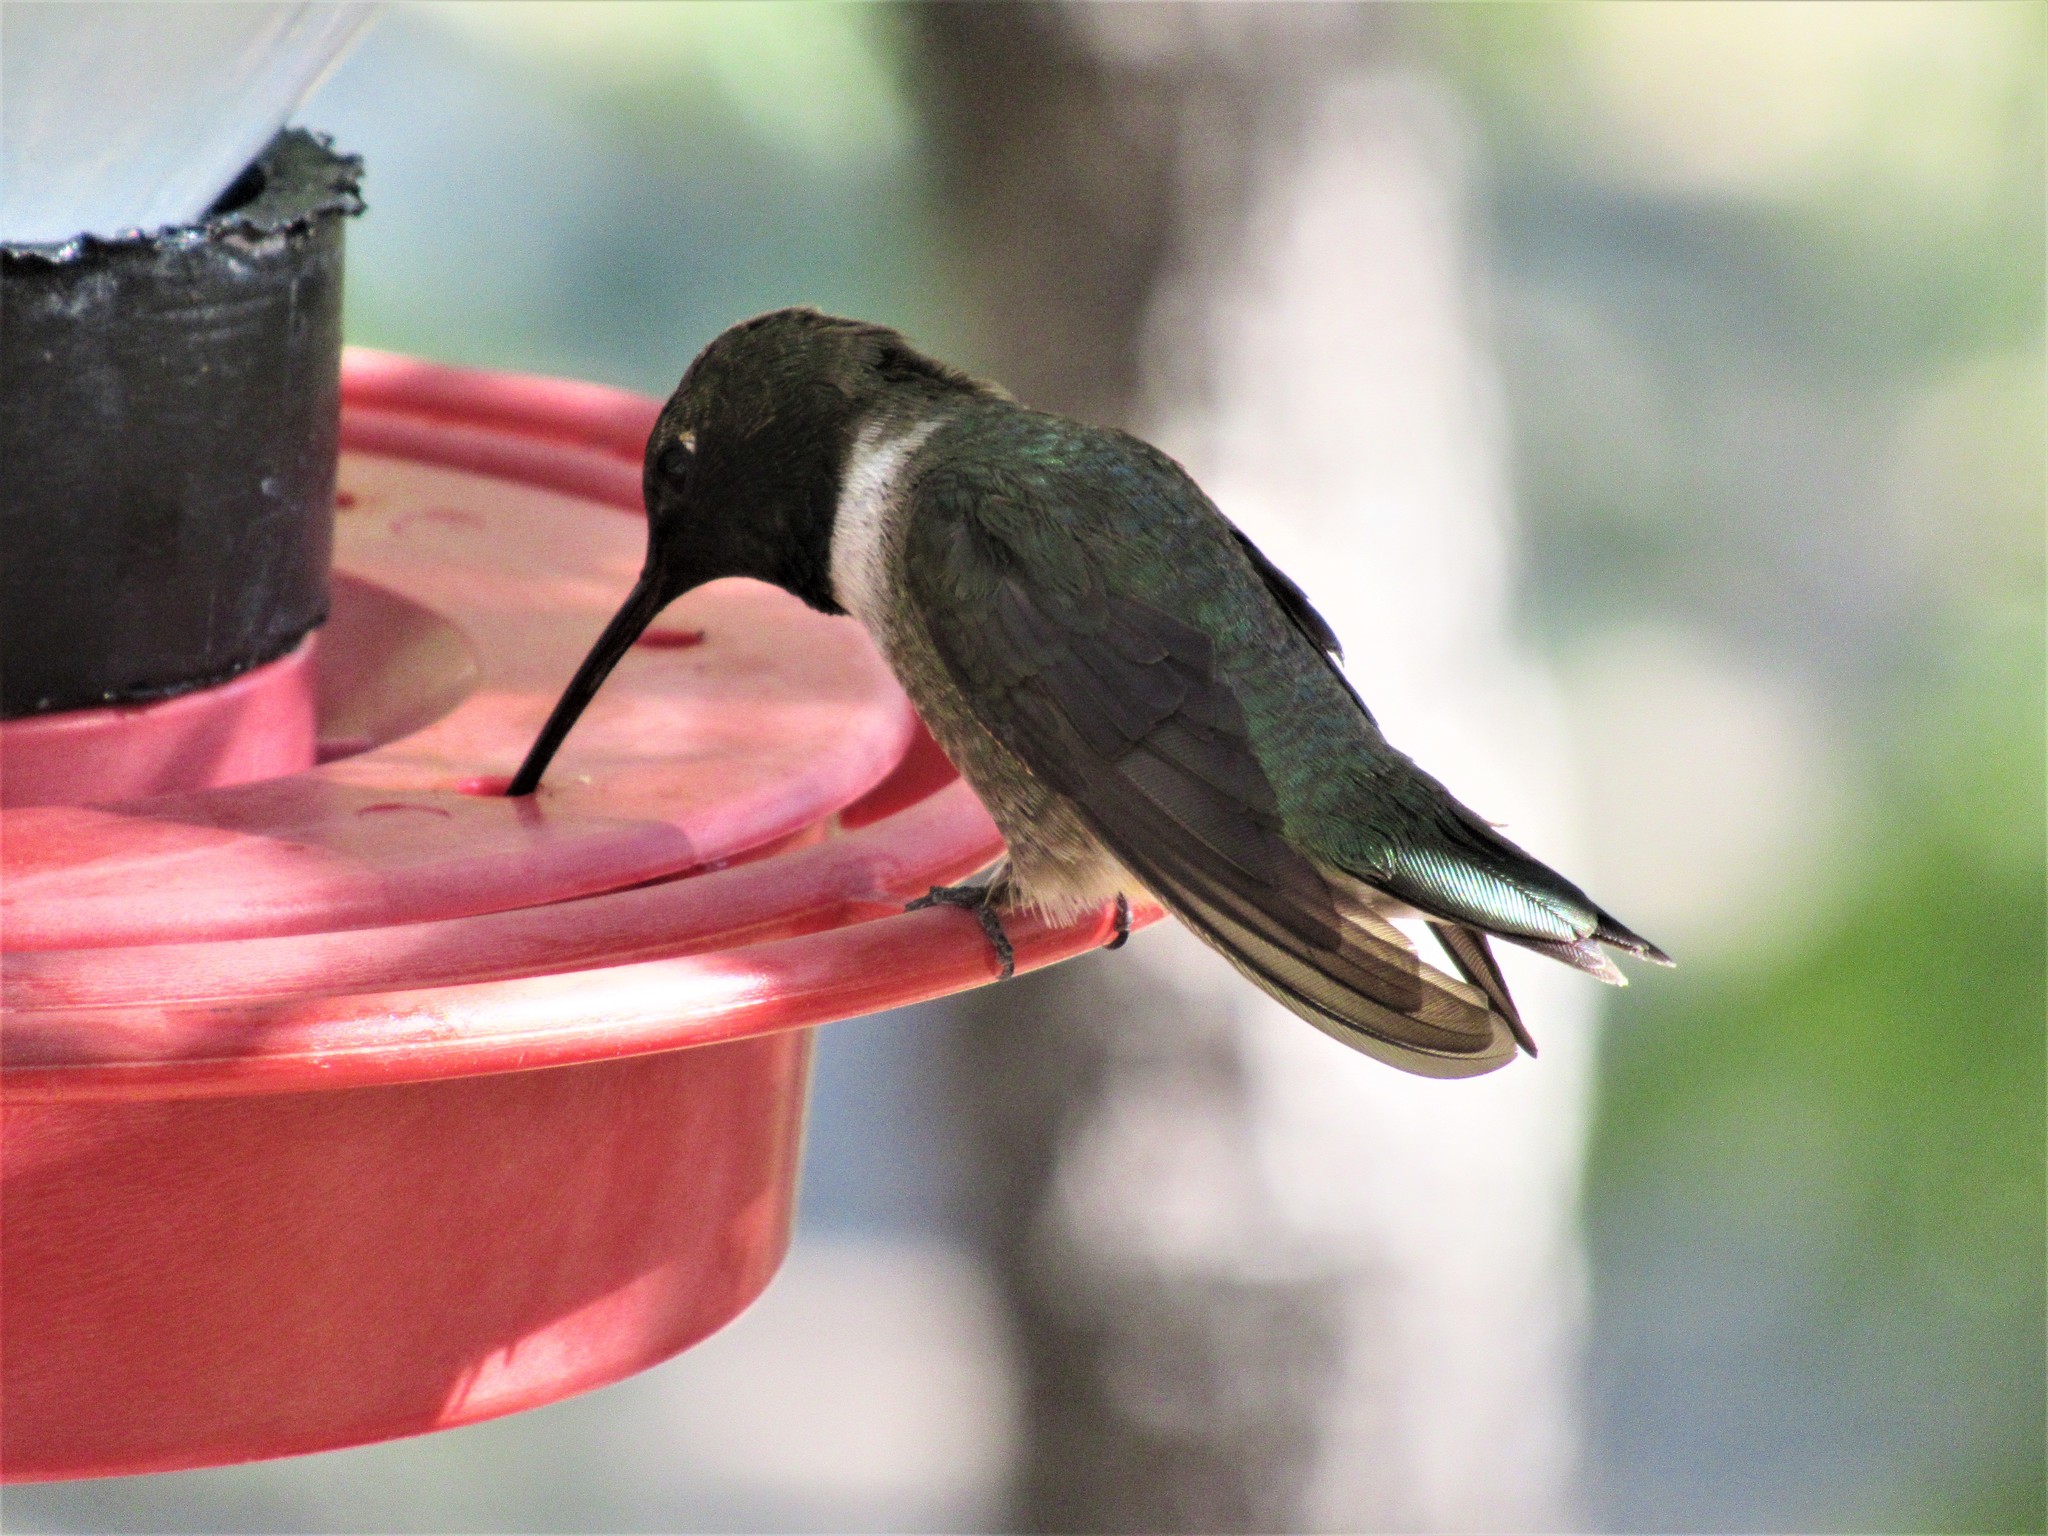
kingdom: Animalia
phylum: Chordata
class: Aves
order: Apodiformes
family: Trochilidae
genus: Archilochus
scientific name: Archilochus alexandri
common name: Black-chinned hummingbird
